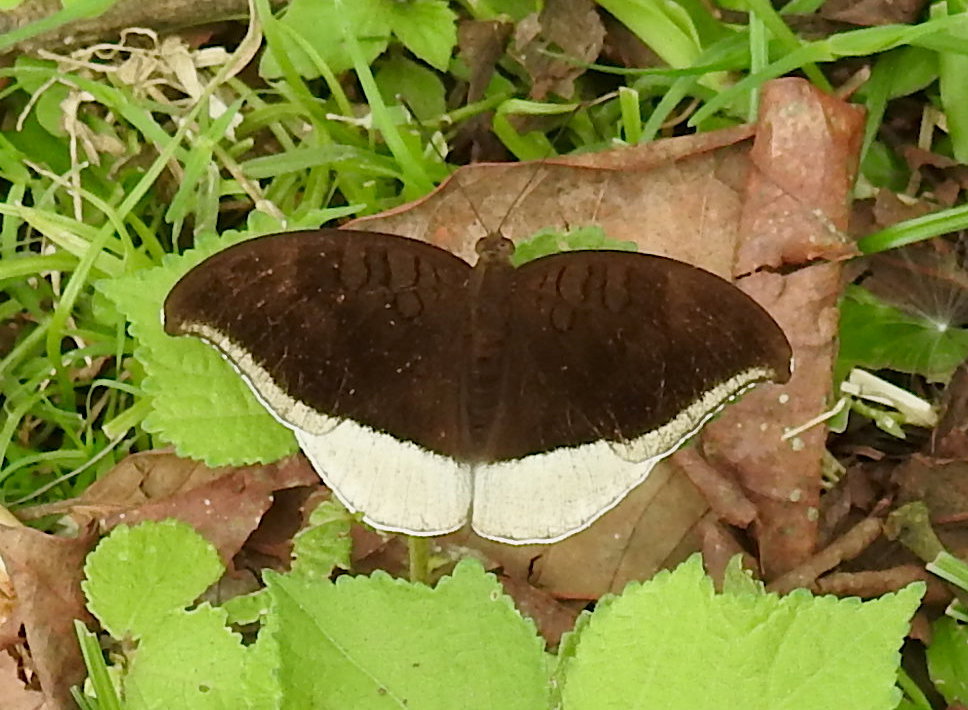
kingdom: Animalia
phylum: Arthropoda
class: Insecta
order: Lepidoptera
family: Nymphalidae
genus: Tanaecia
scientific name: Tanaecia lepidea
